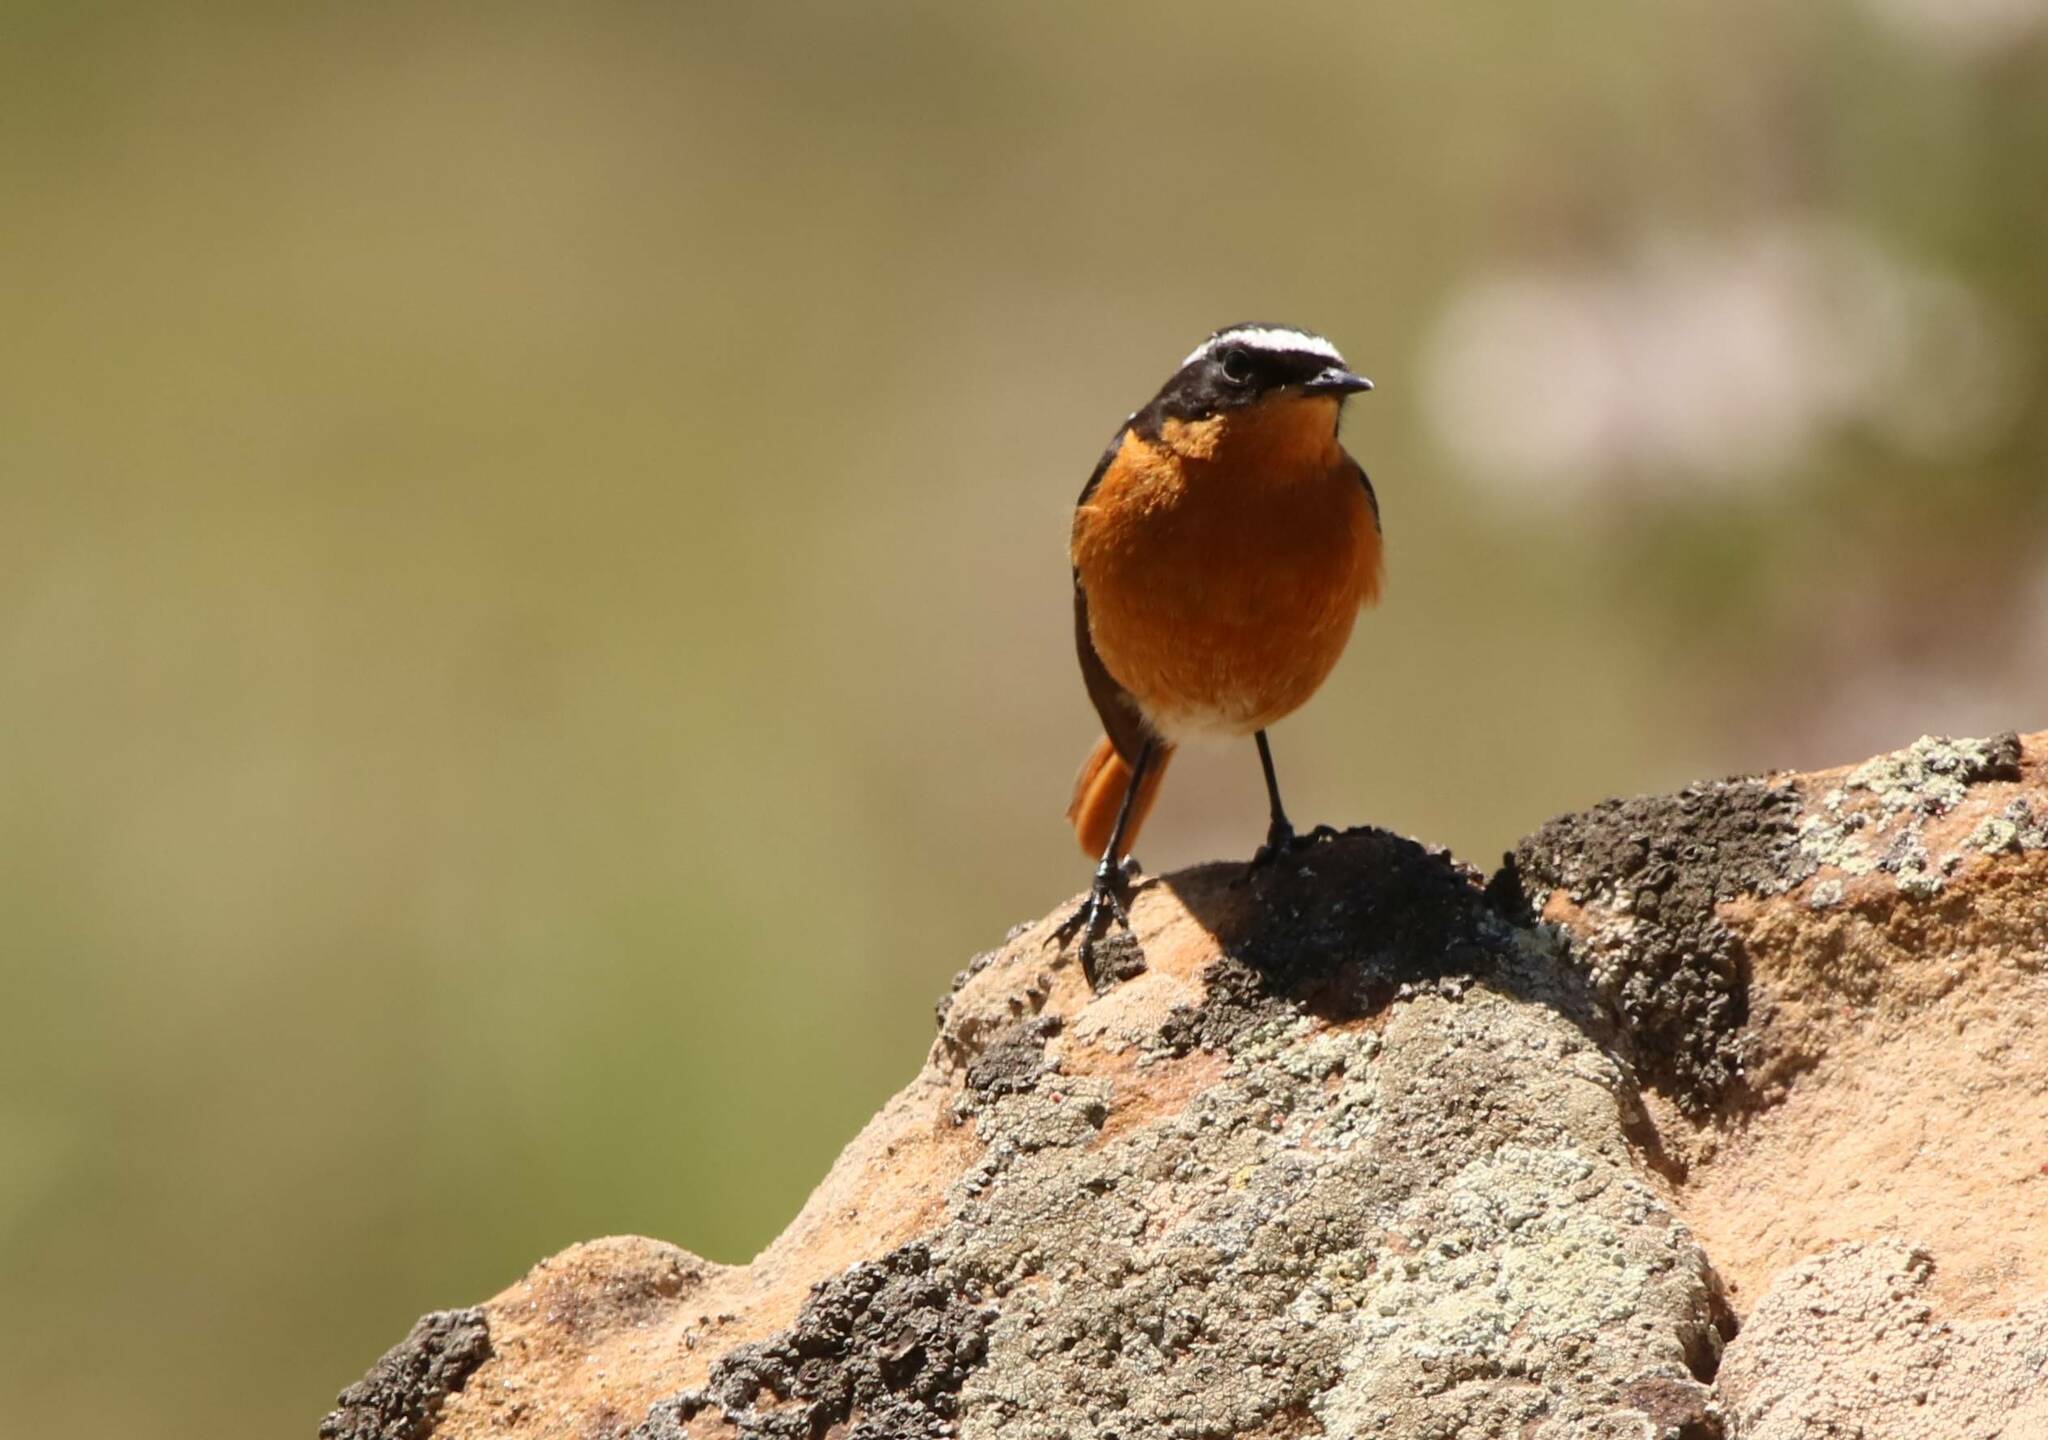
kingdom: Animalia
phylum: Chordata
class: Aves
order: Passeriformes
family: Muscicapidae
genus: Phoenicurus
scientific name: Phoenicurus moussieri
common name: Moussier's redstart
